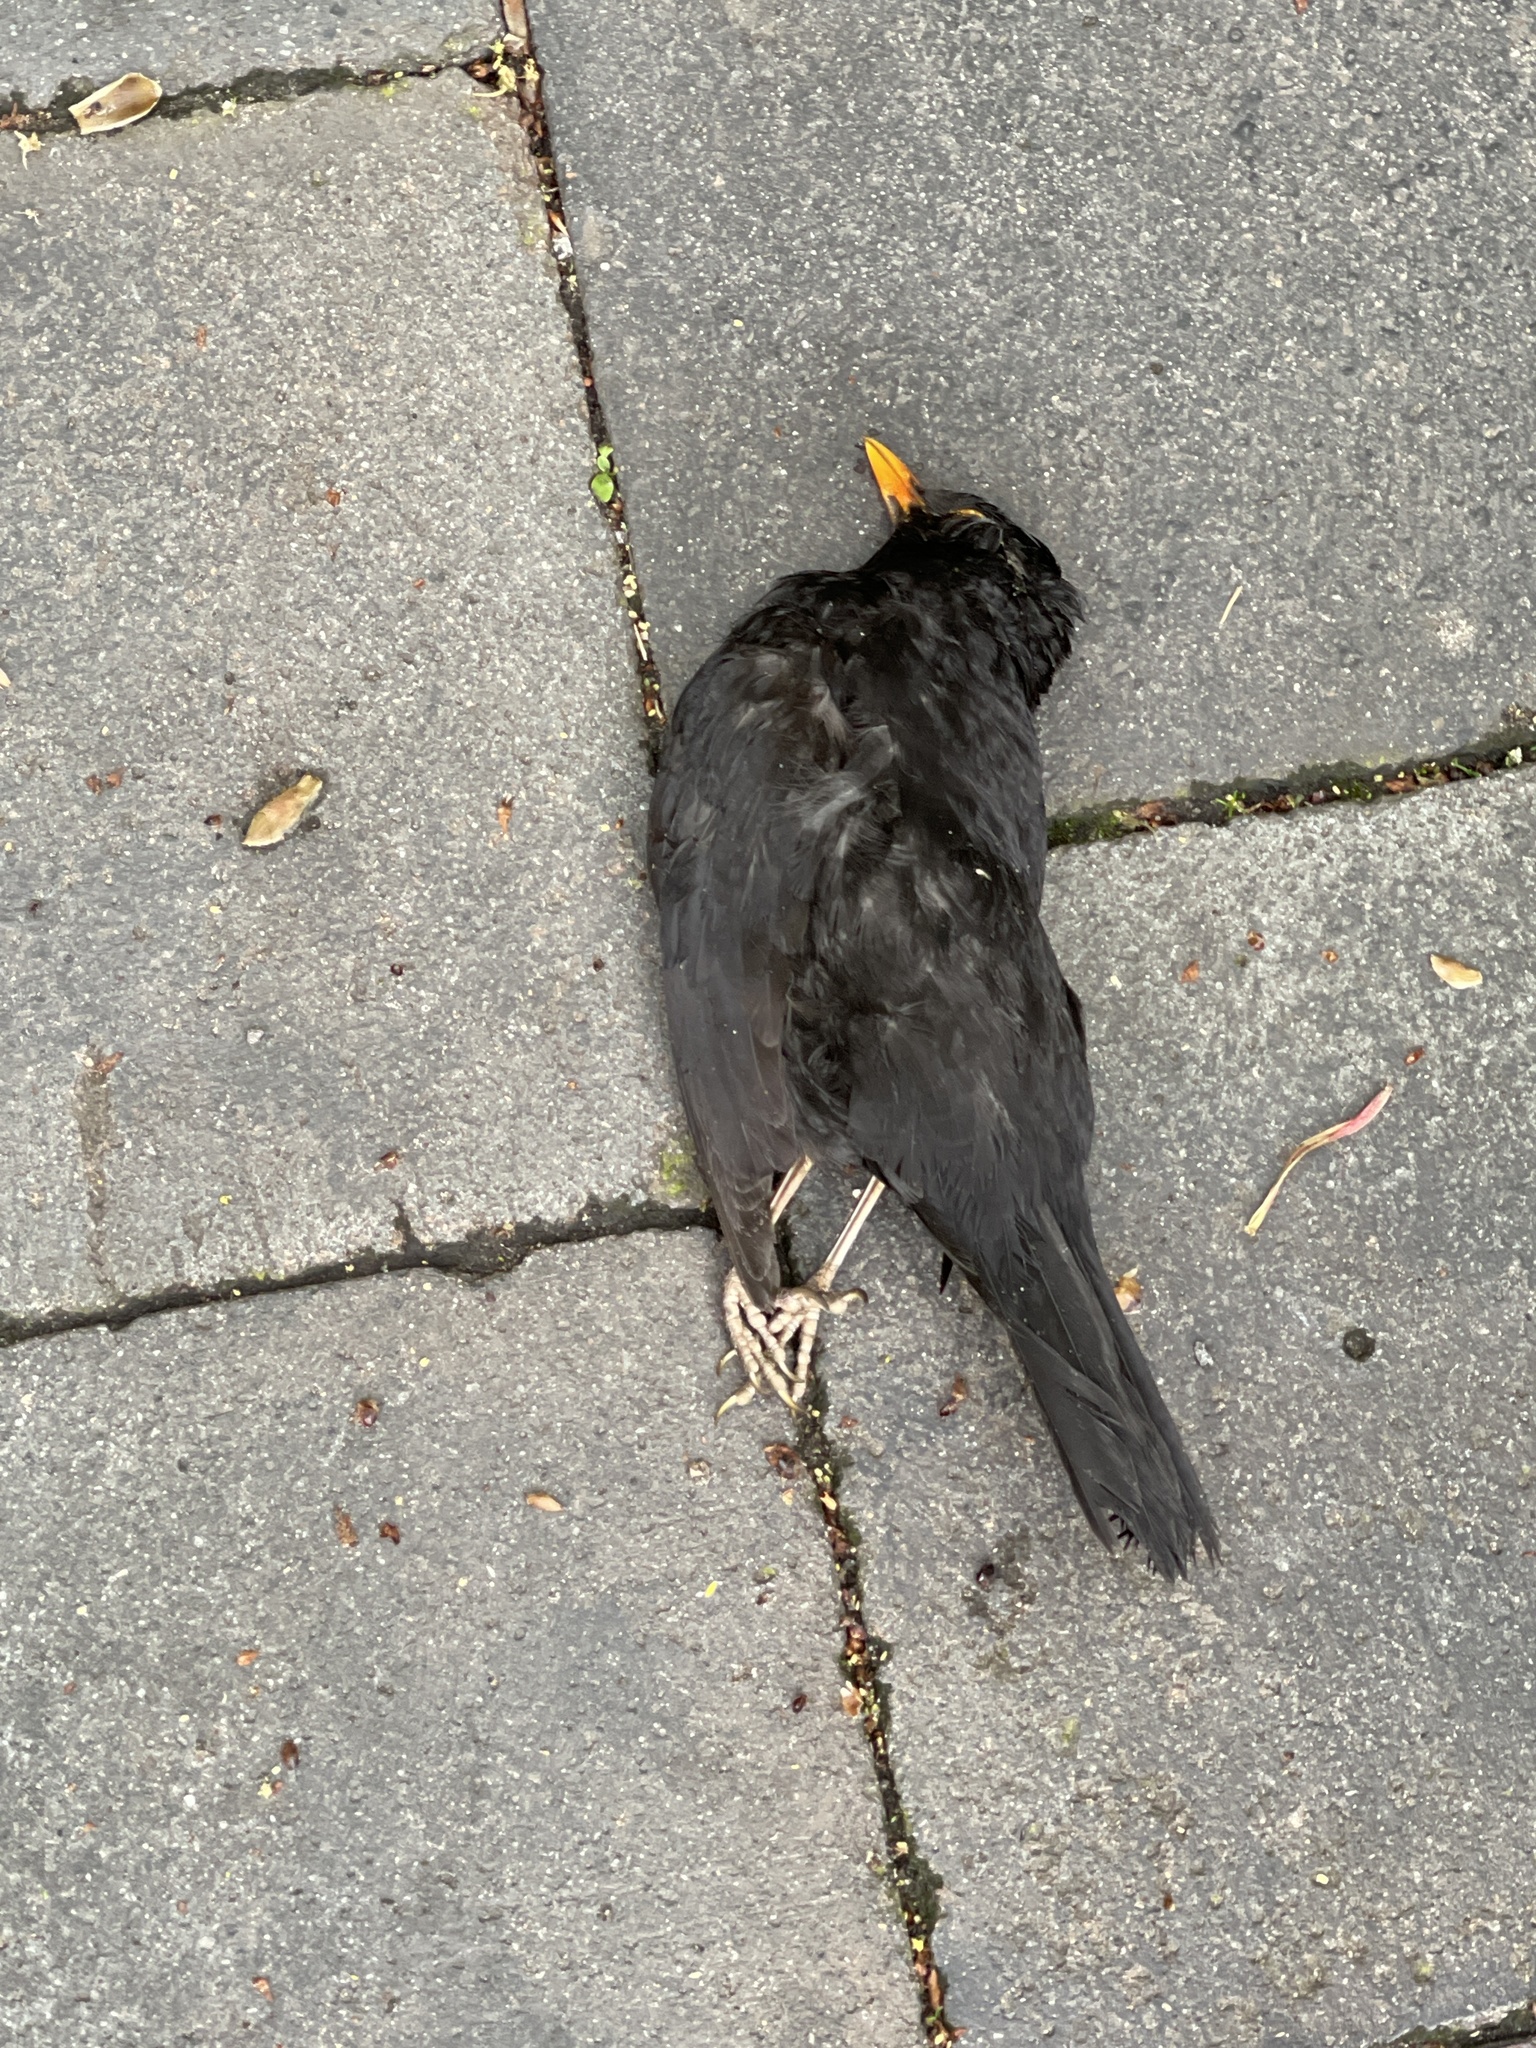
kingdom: Animalia
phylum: Chordata
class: Aves
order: Passeriformes
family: Turdidae
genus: Turdus
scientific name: Turdus merula
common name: Common blackbird
